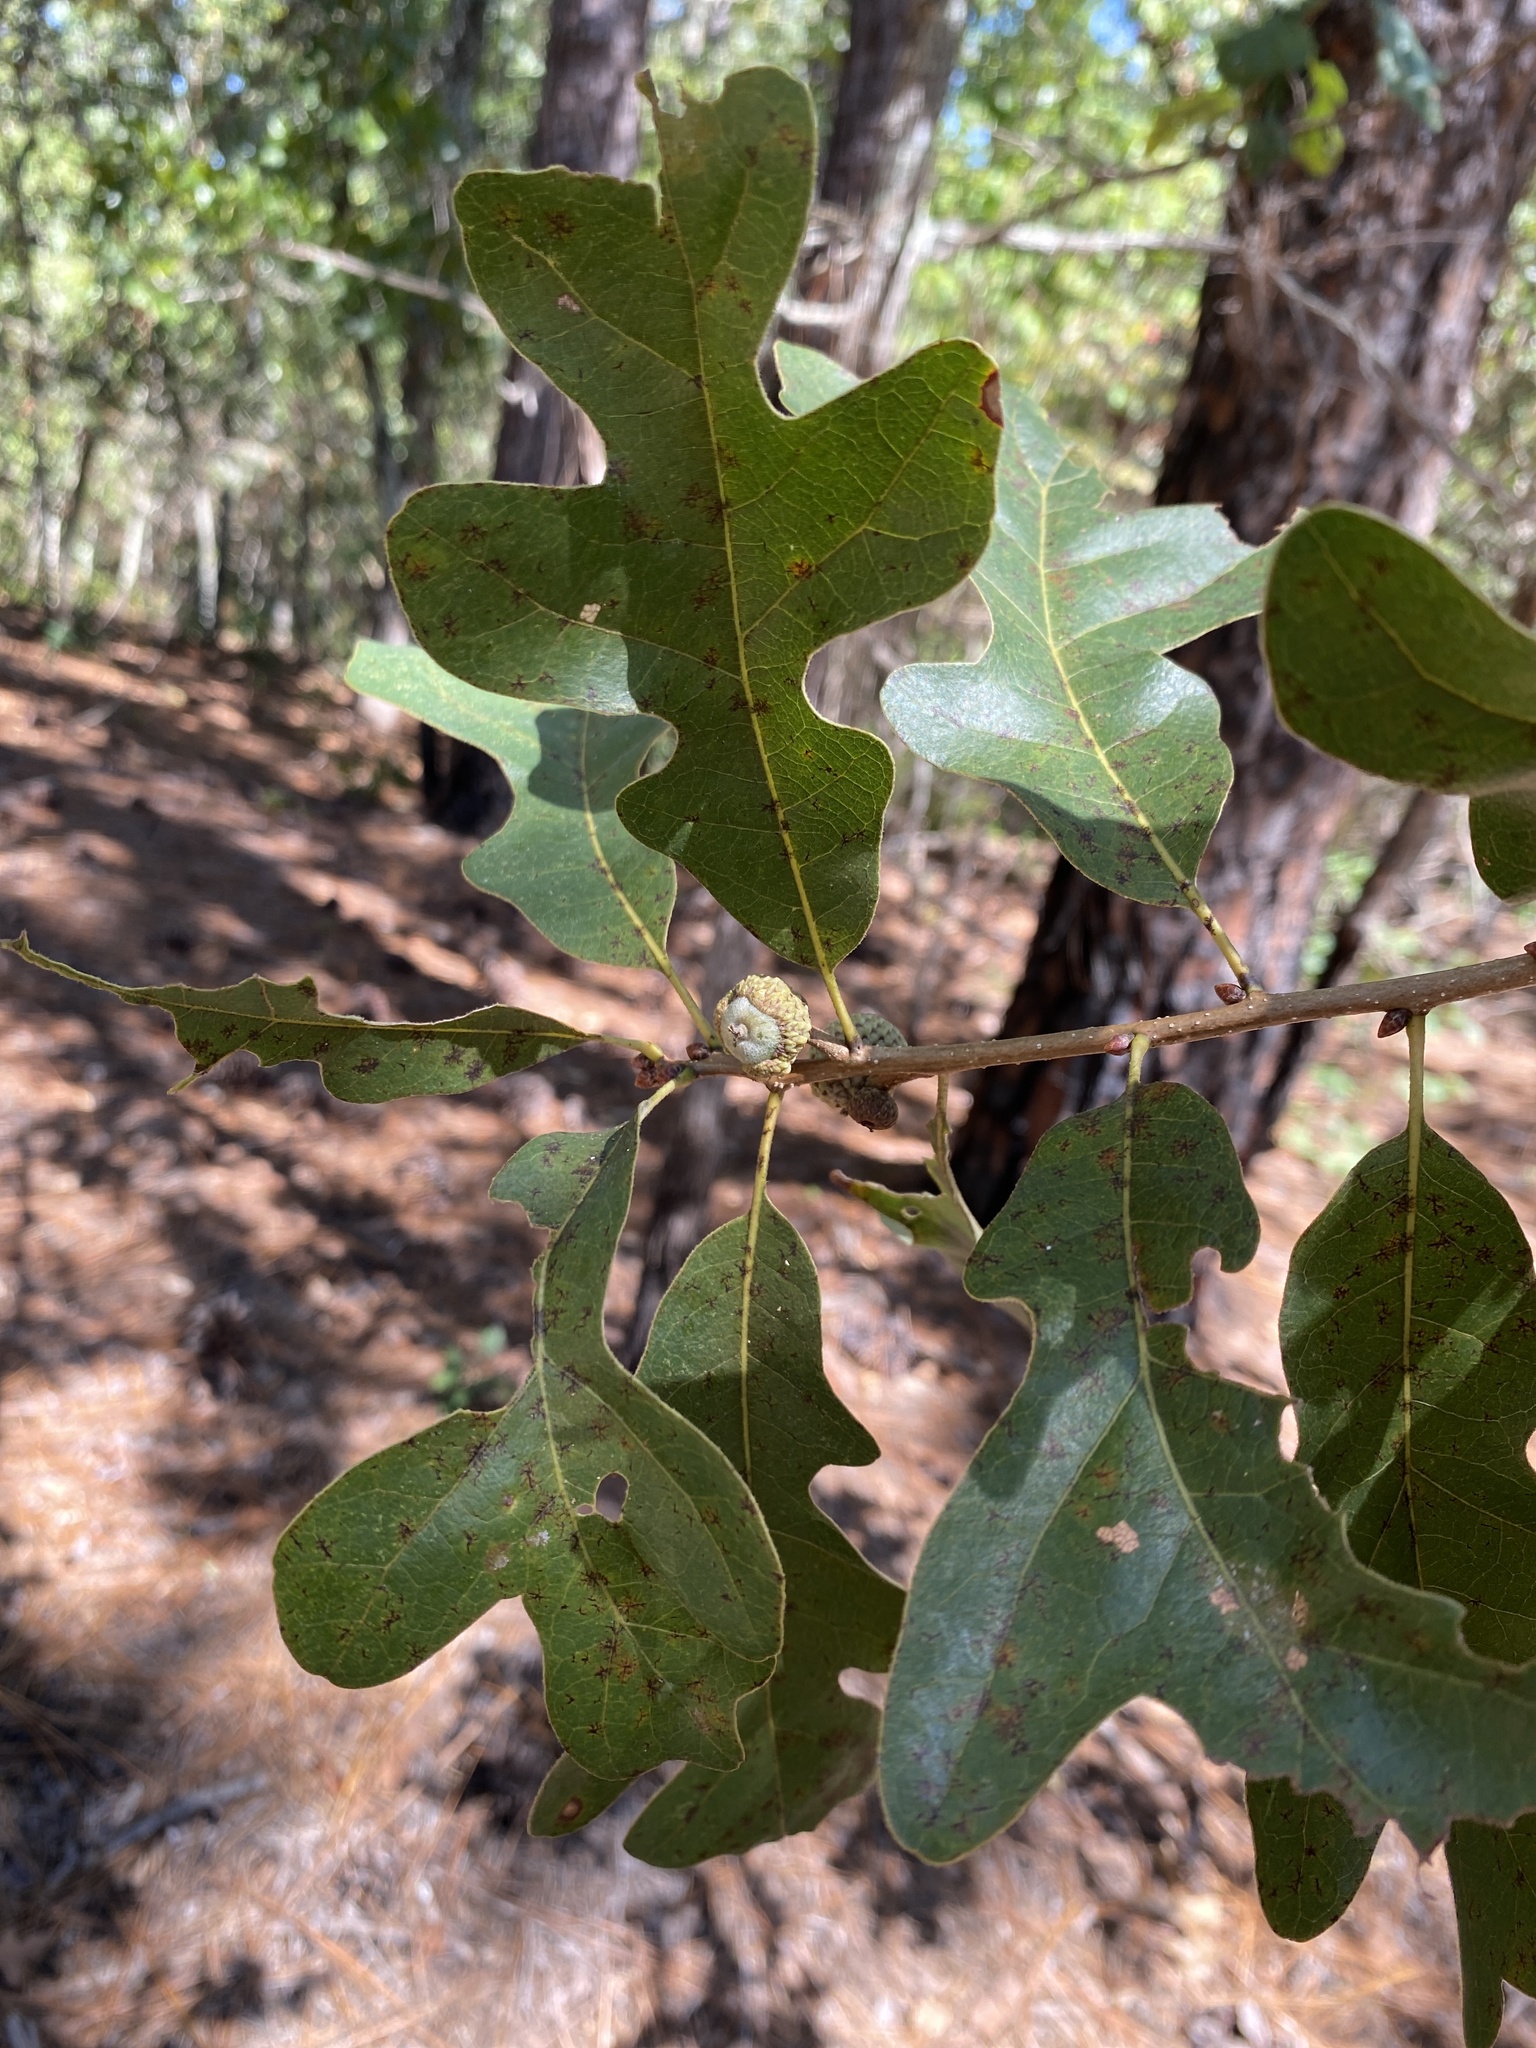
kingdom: Plantae
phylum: Tracheophyta
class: Magnoliopsida
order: Fagales
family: Fagaceae
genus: Quercus
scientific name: Quercus margaretiae
